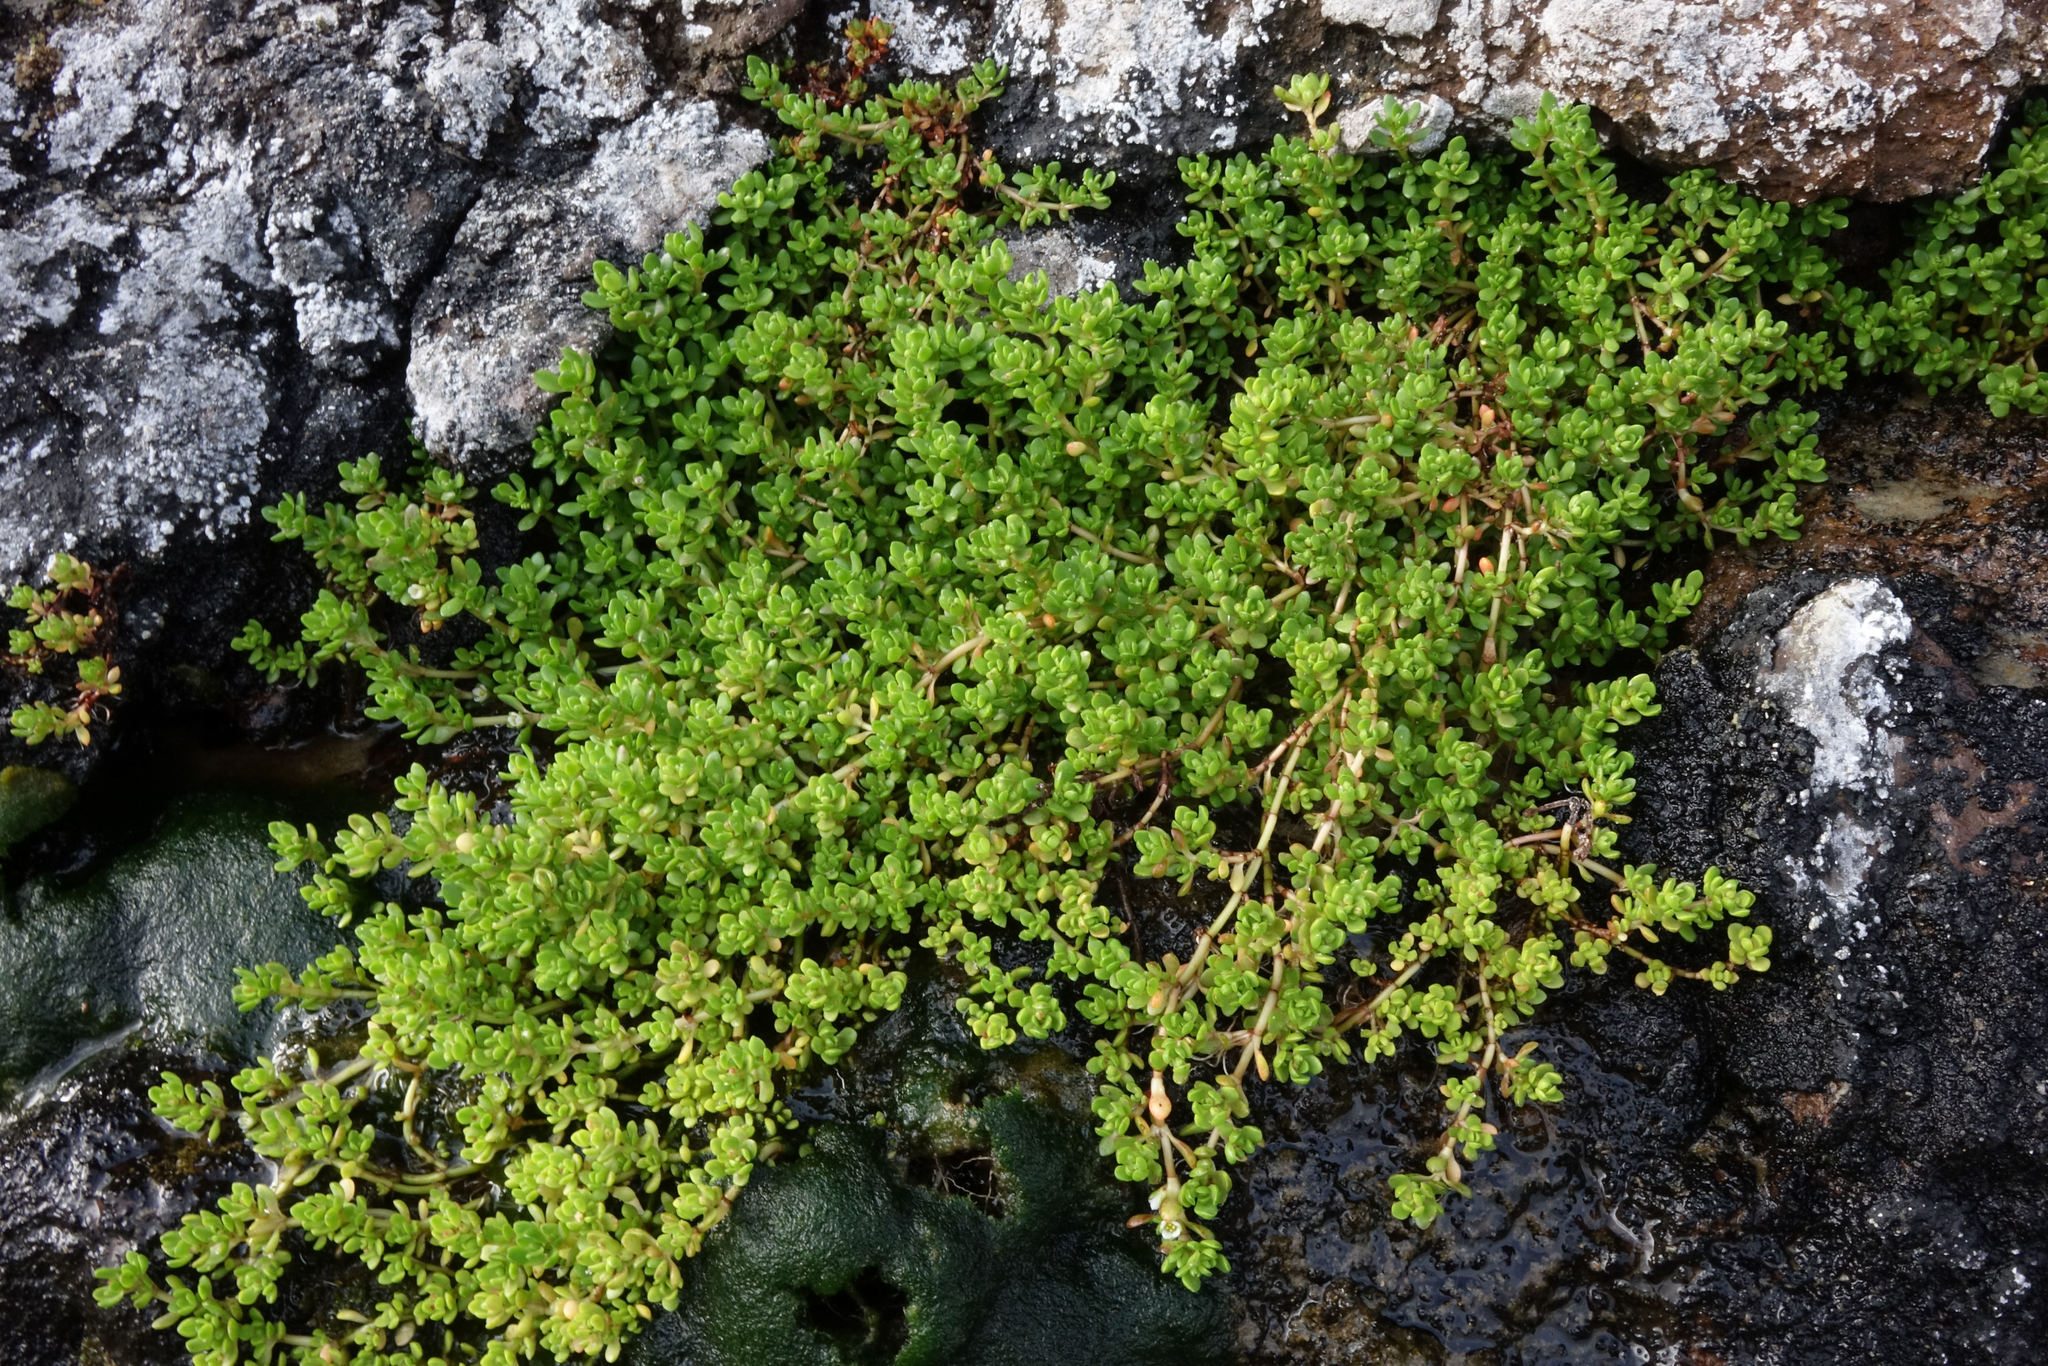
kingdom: Plantae
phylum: Tracheophyta
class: Magnoliopsida
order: Saxifragales
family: Crassulaceae
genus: Crassula
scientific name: Crassula moschata
